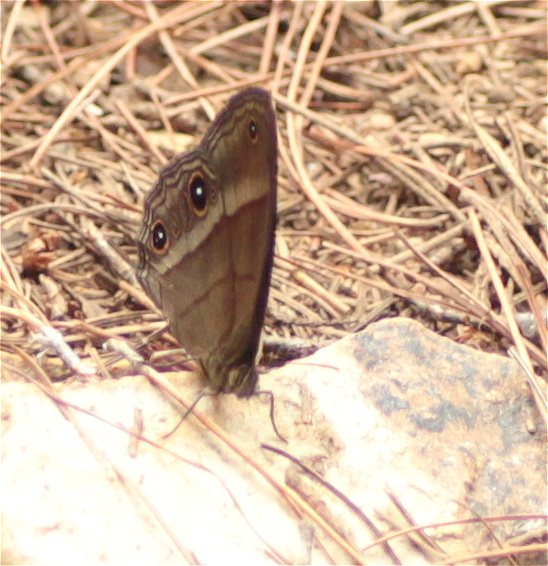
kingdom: Animalia
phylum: Arthropoda
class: Insecta
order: Lepidoptera
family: Nymphalidae
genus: Erichthodes
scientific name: Erichthodes
